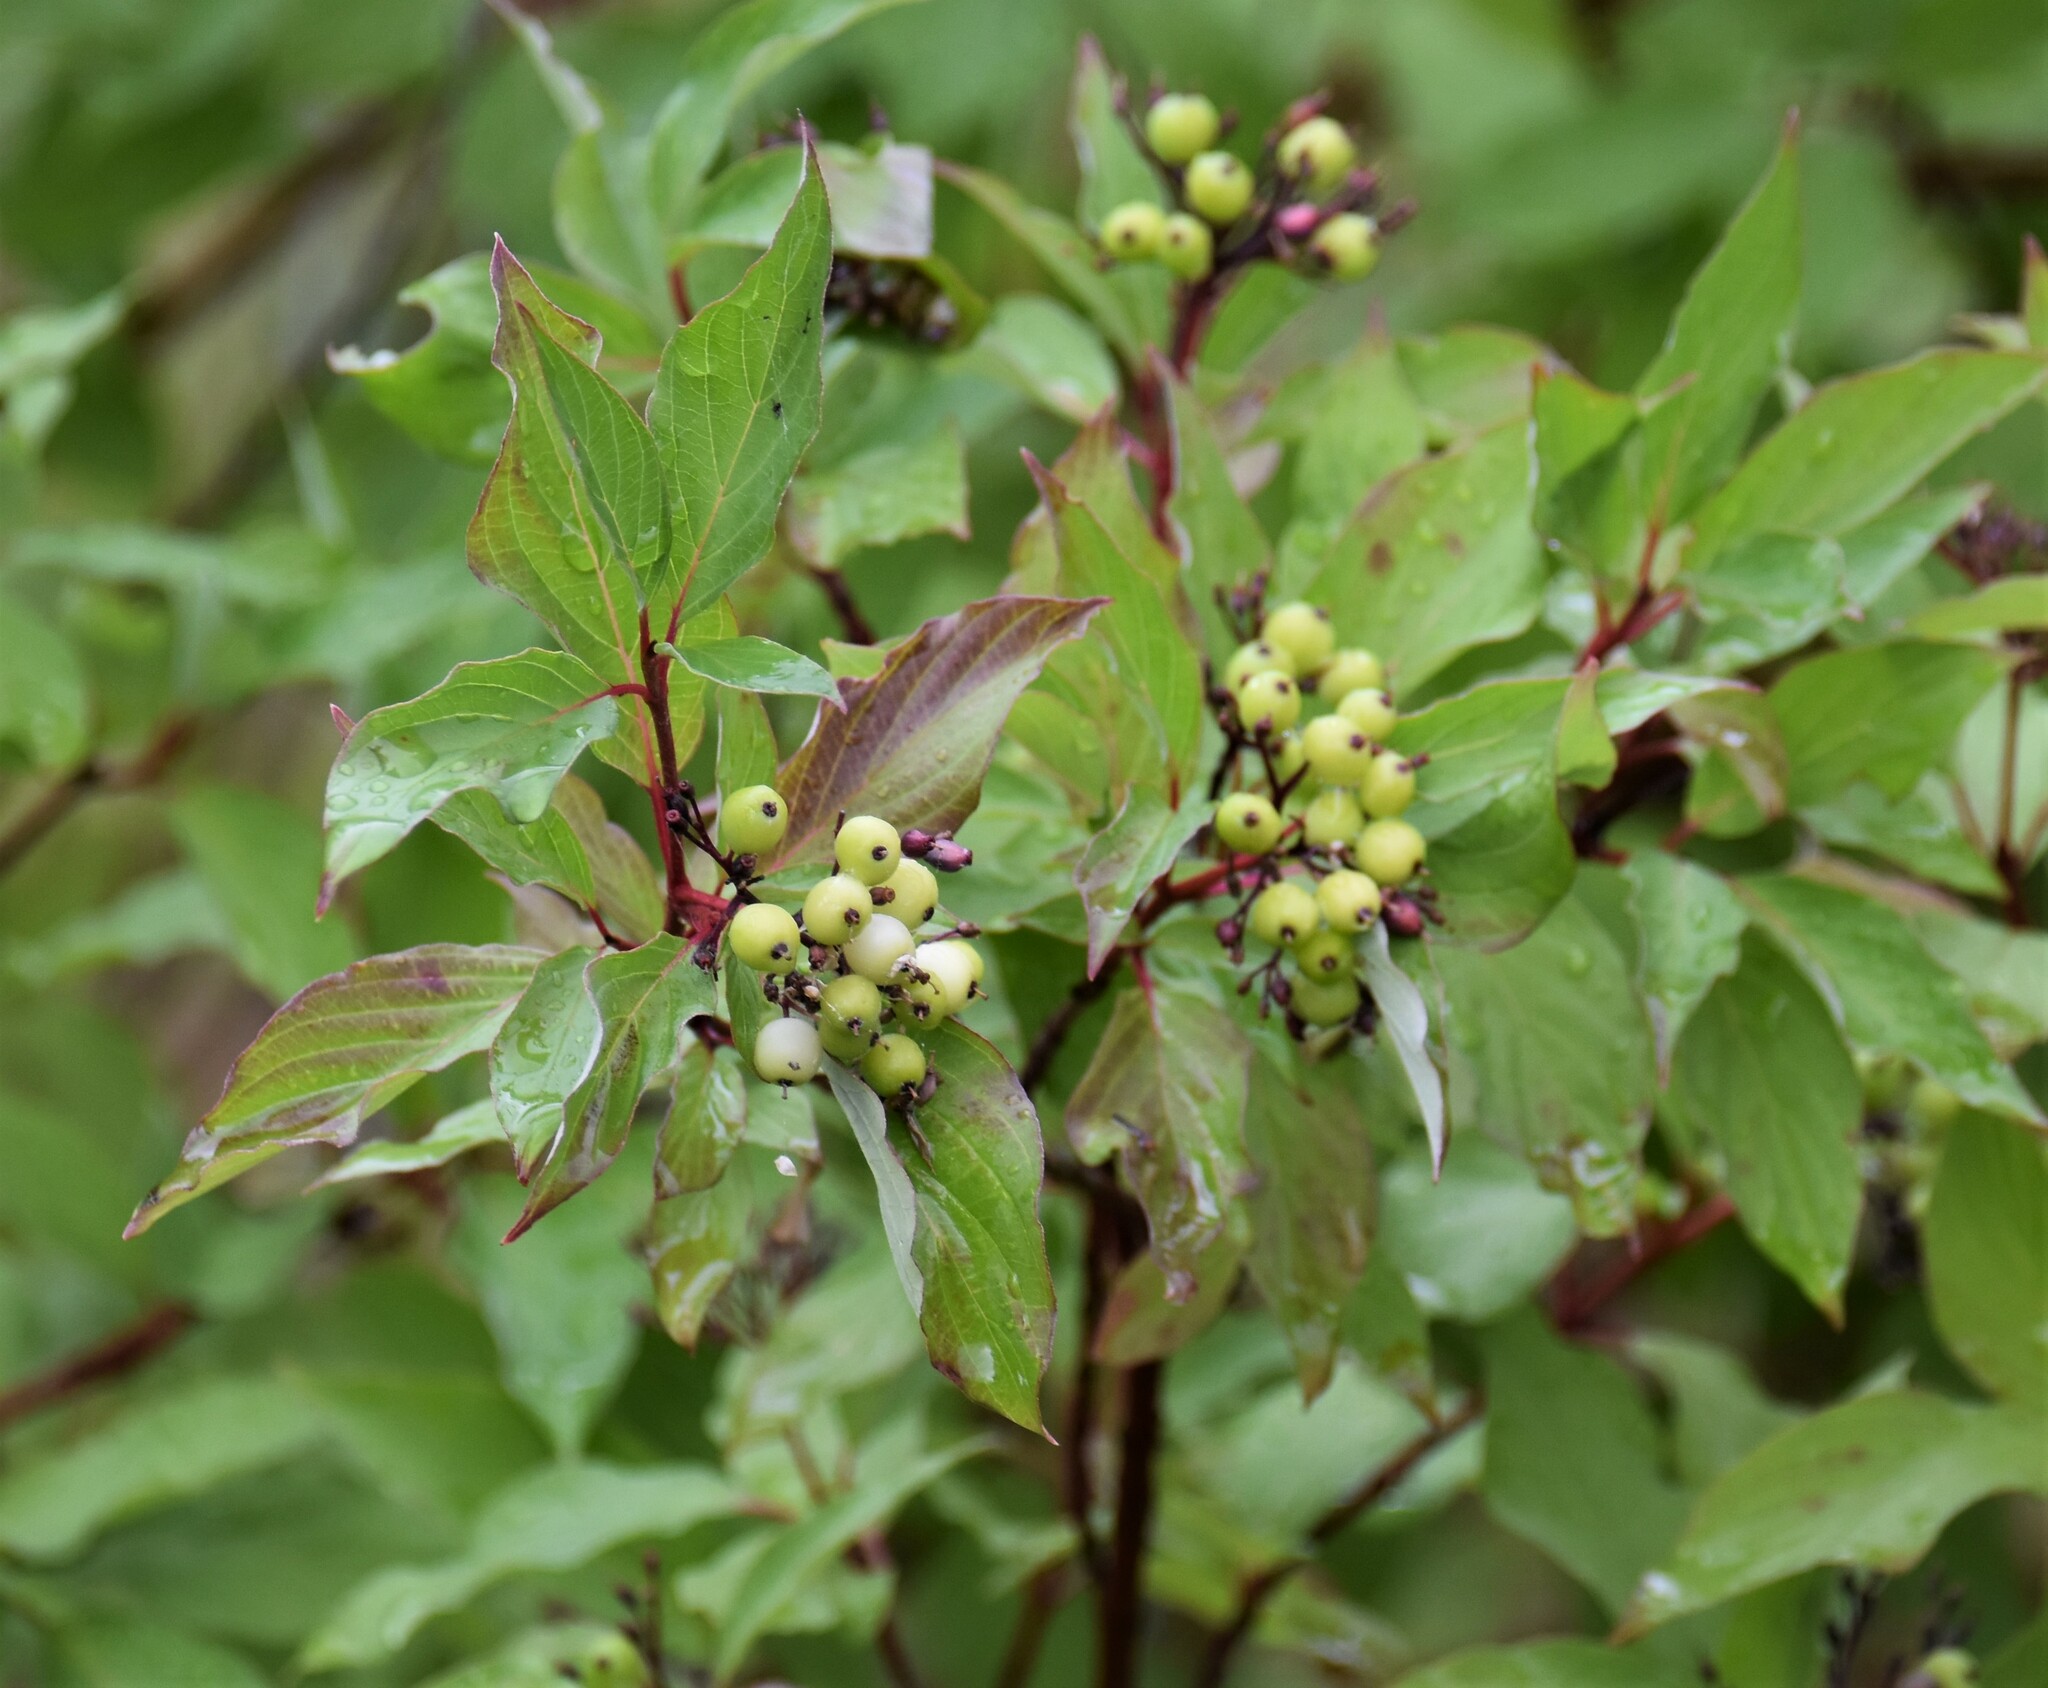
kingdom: Plantae
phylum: Tracheophyta
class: Magnoliopsida
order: Cornales
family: Cornaceae
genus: Cornus
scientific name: Cornus sericea
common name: Red-osier dogwood
